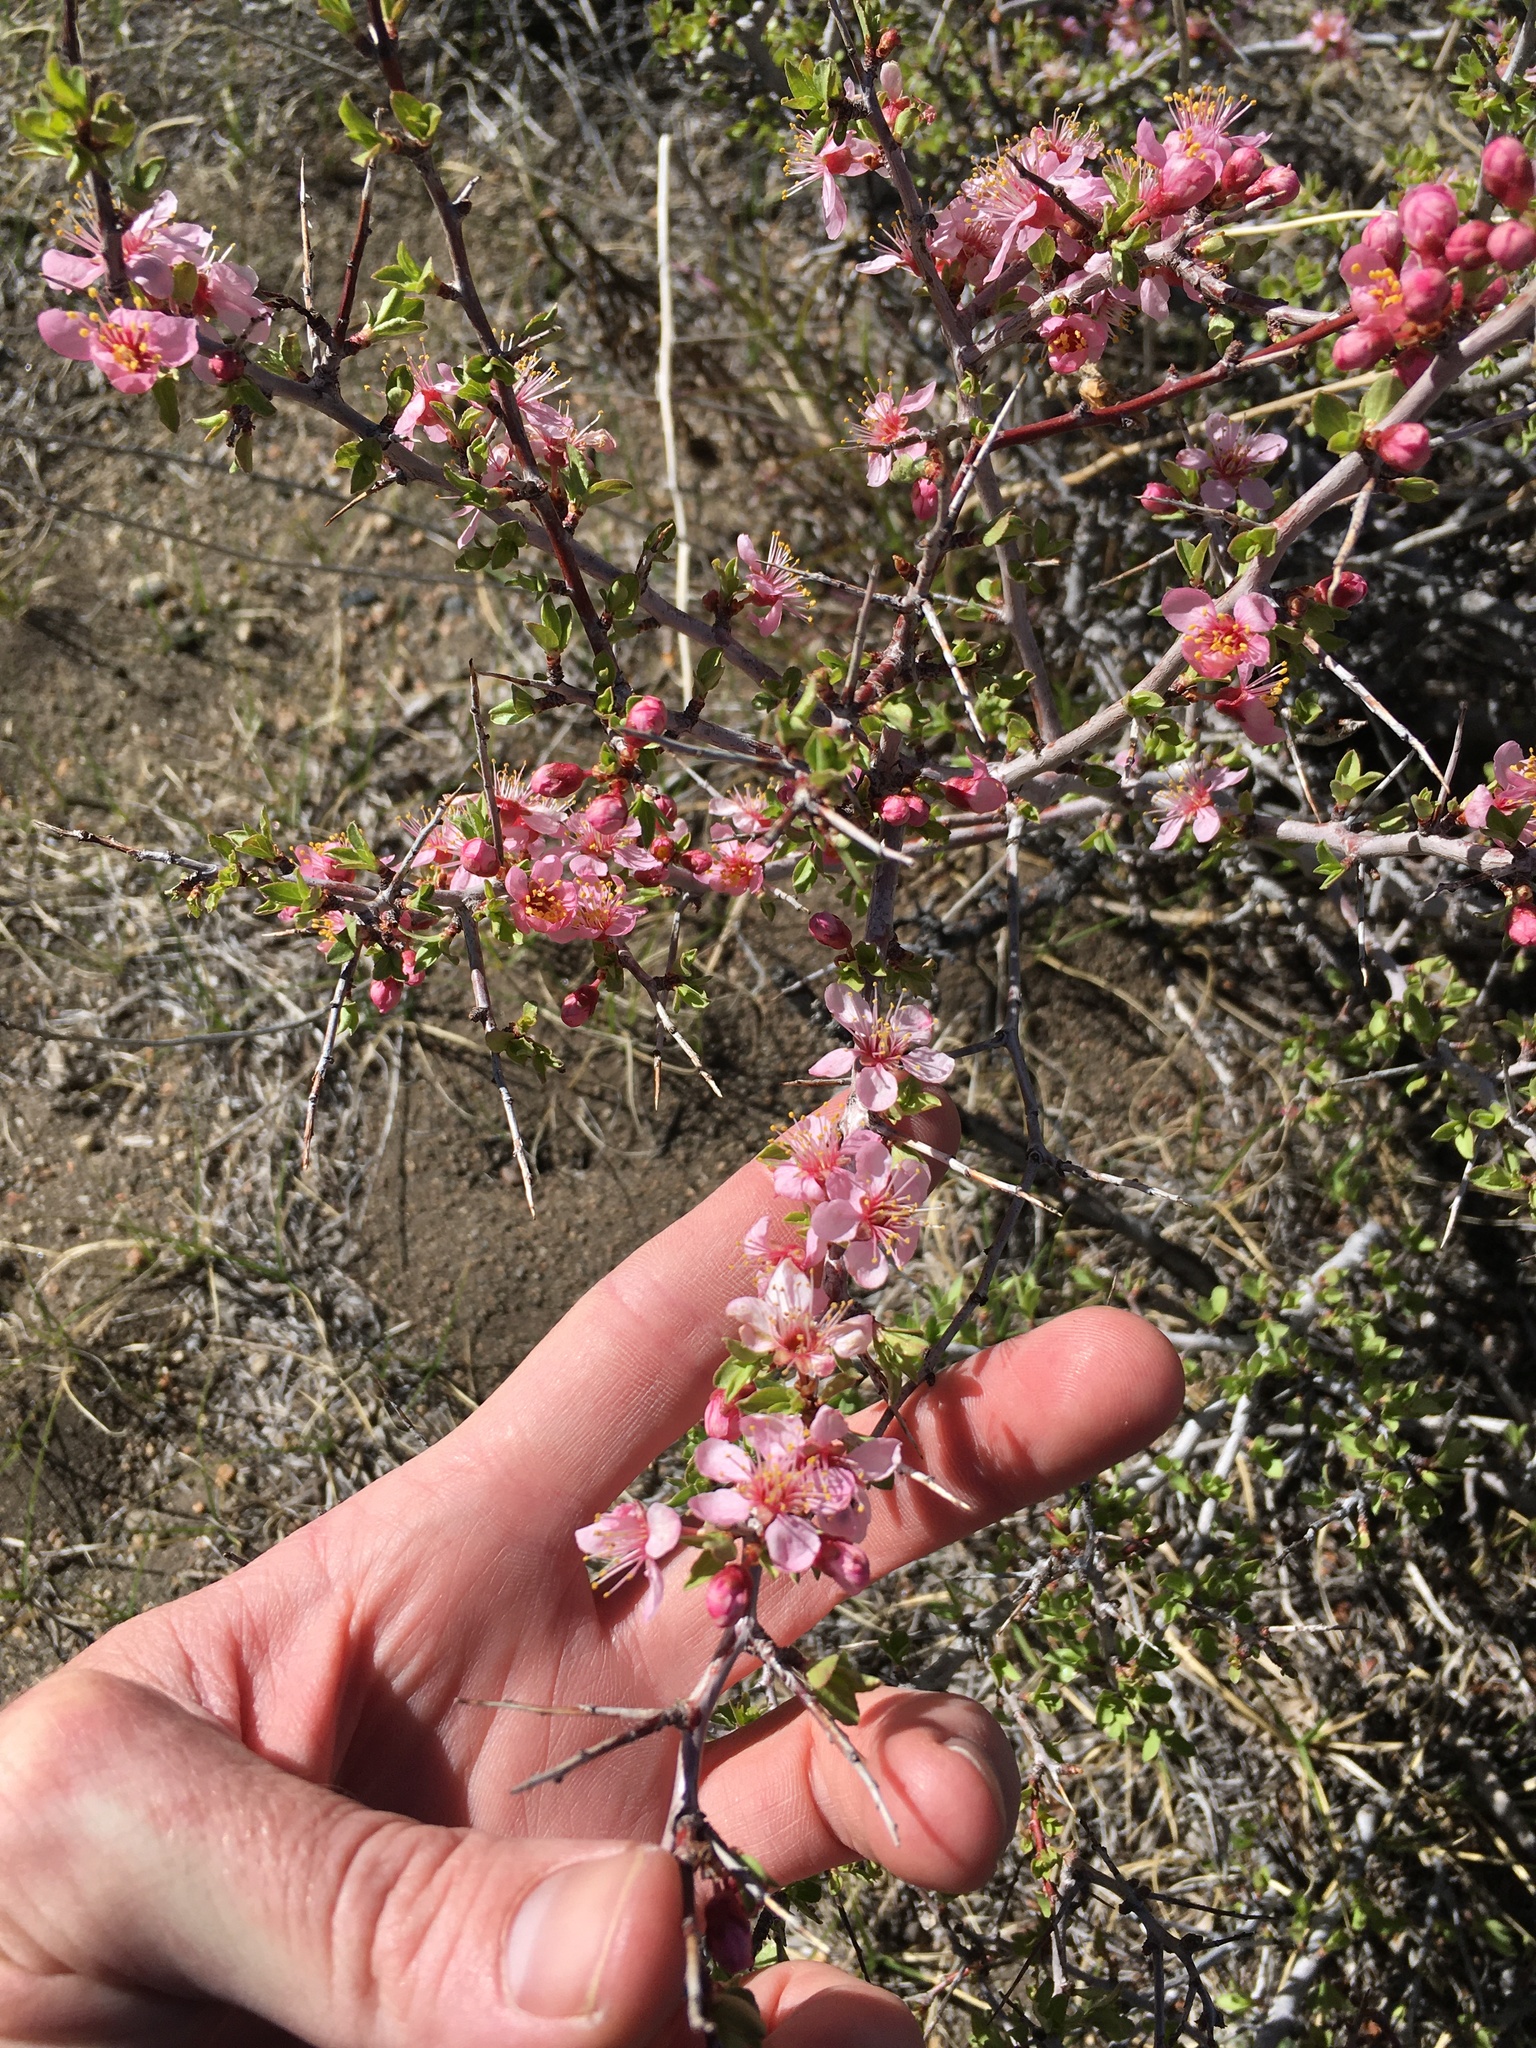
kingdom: Plantae
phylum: Tracheophyta
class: Magnoliopsida
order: Rosales
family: Rosaceae
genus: Prunus
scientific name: Prunus andersonii
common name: Desert peach
